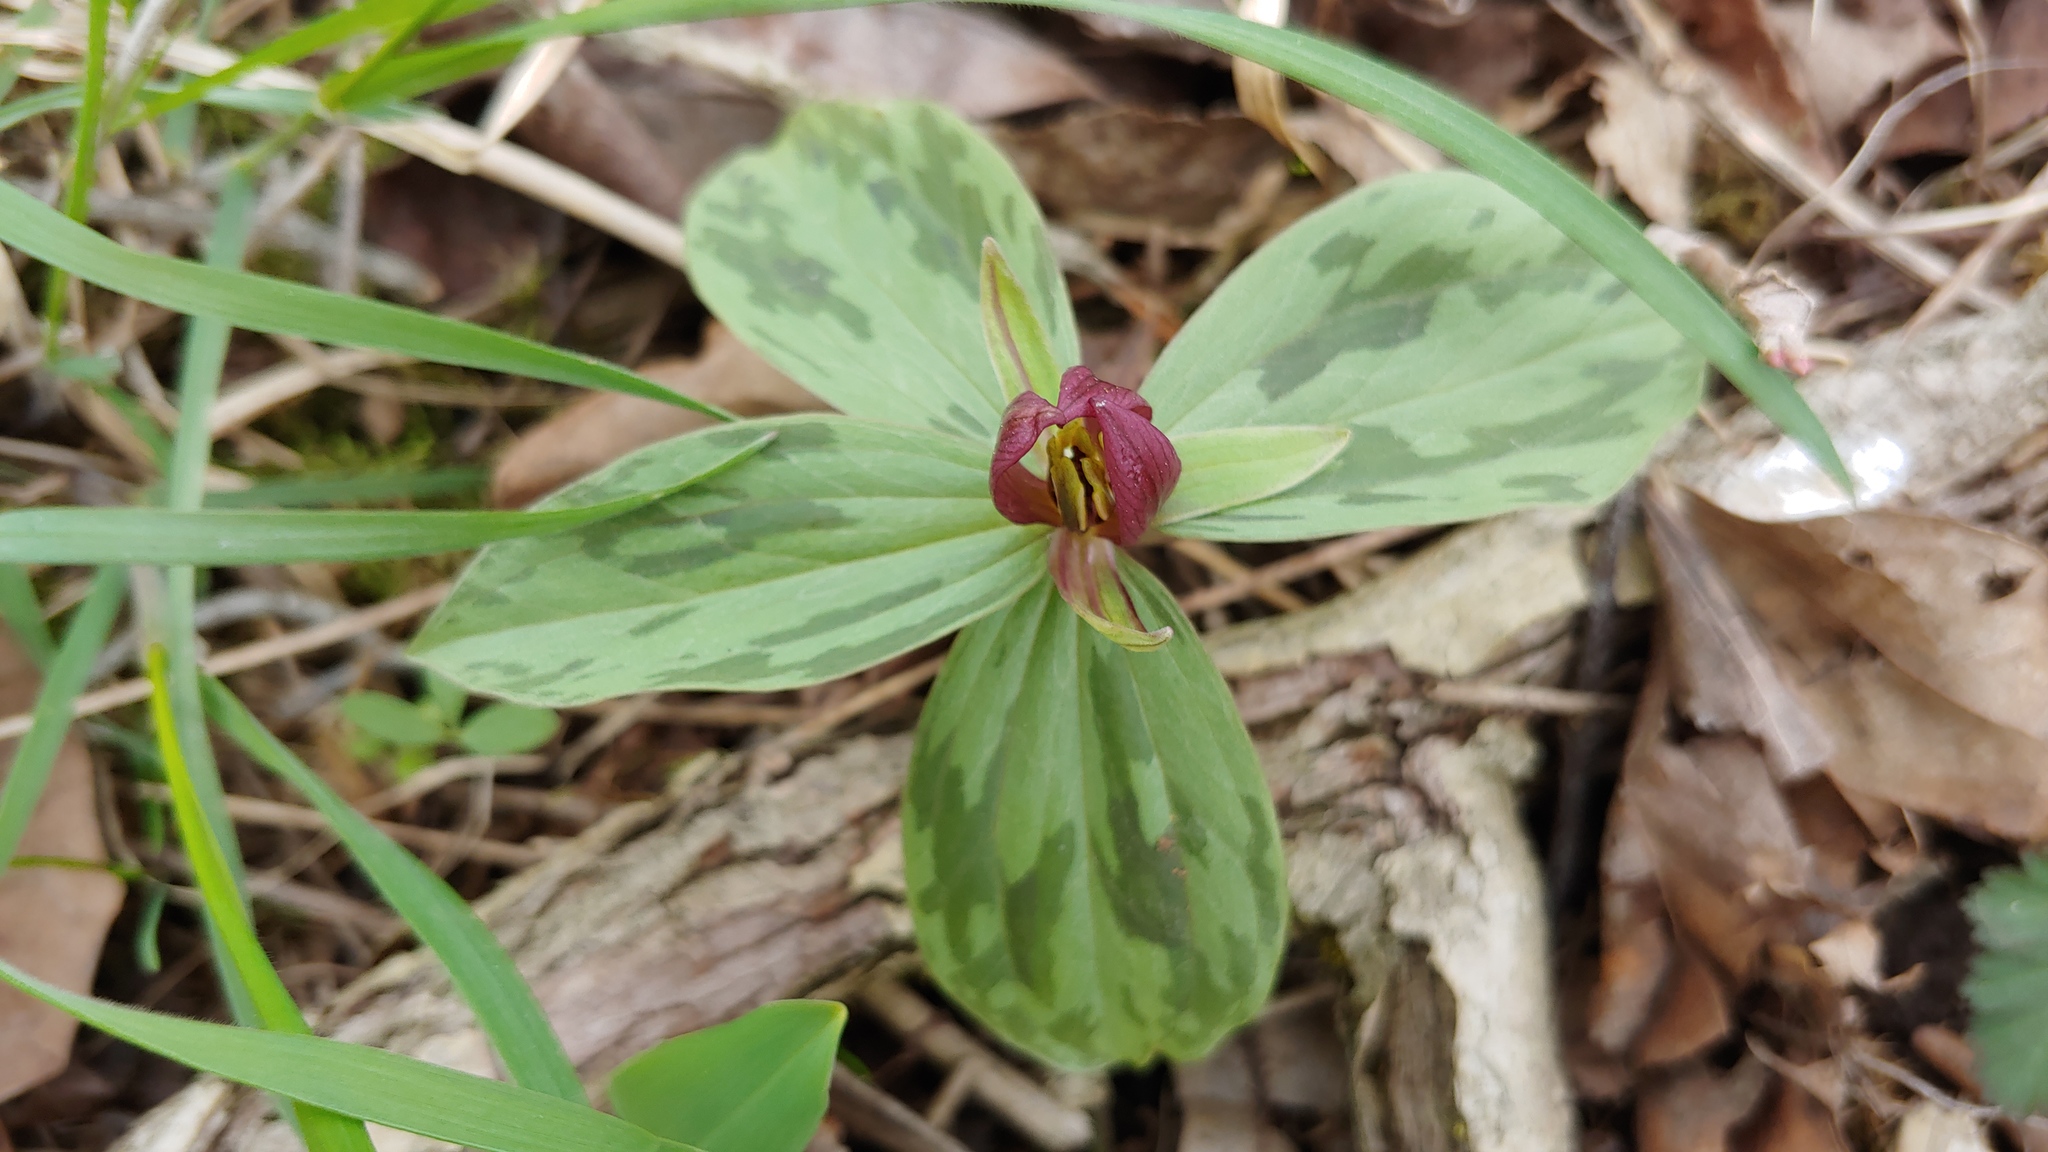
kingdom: Plantae
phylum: Tracheophyta
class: Liliopsida
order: Liliales
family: Melanthiaceae
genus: Trillium
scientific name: Trillium sessile
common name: Sessile trillium
